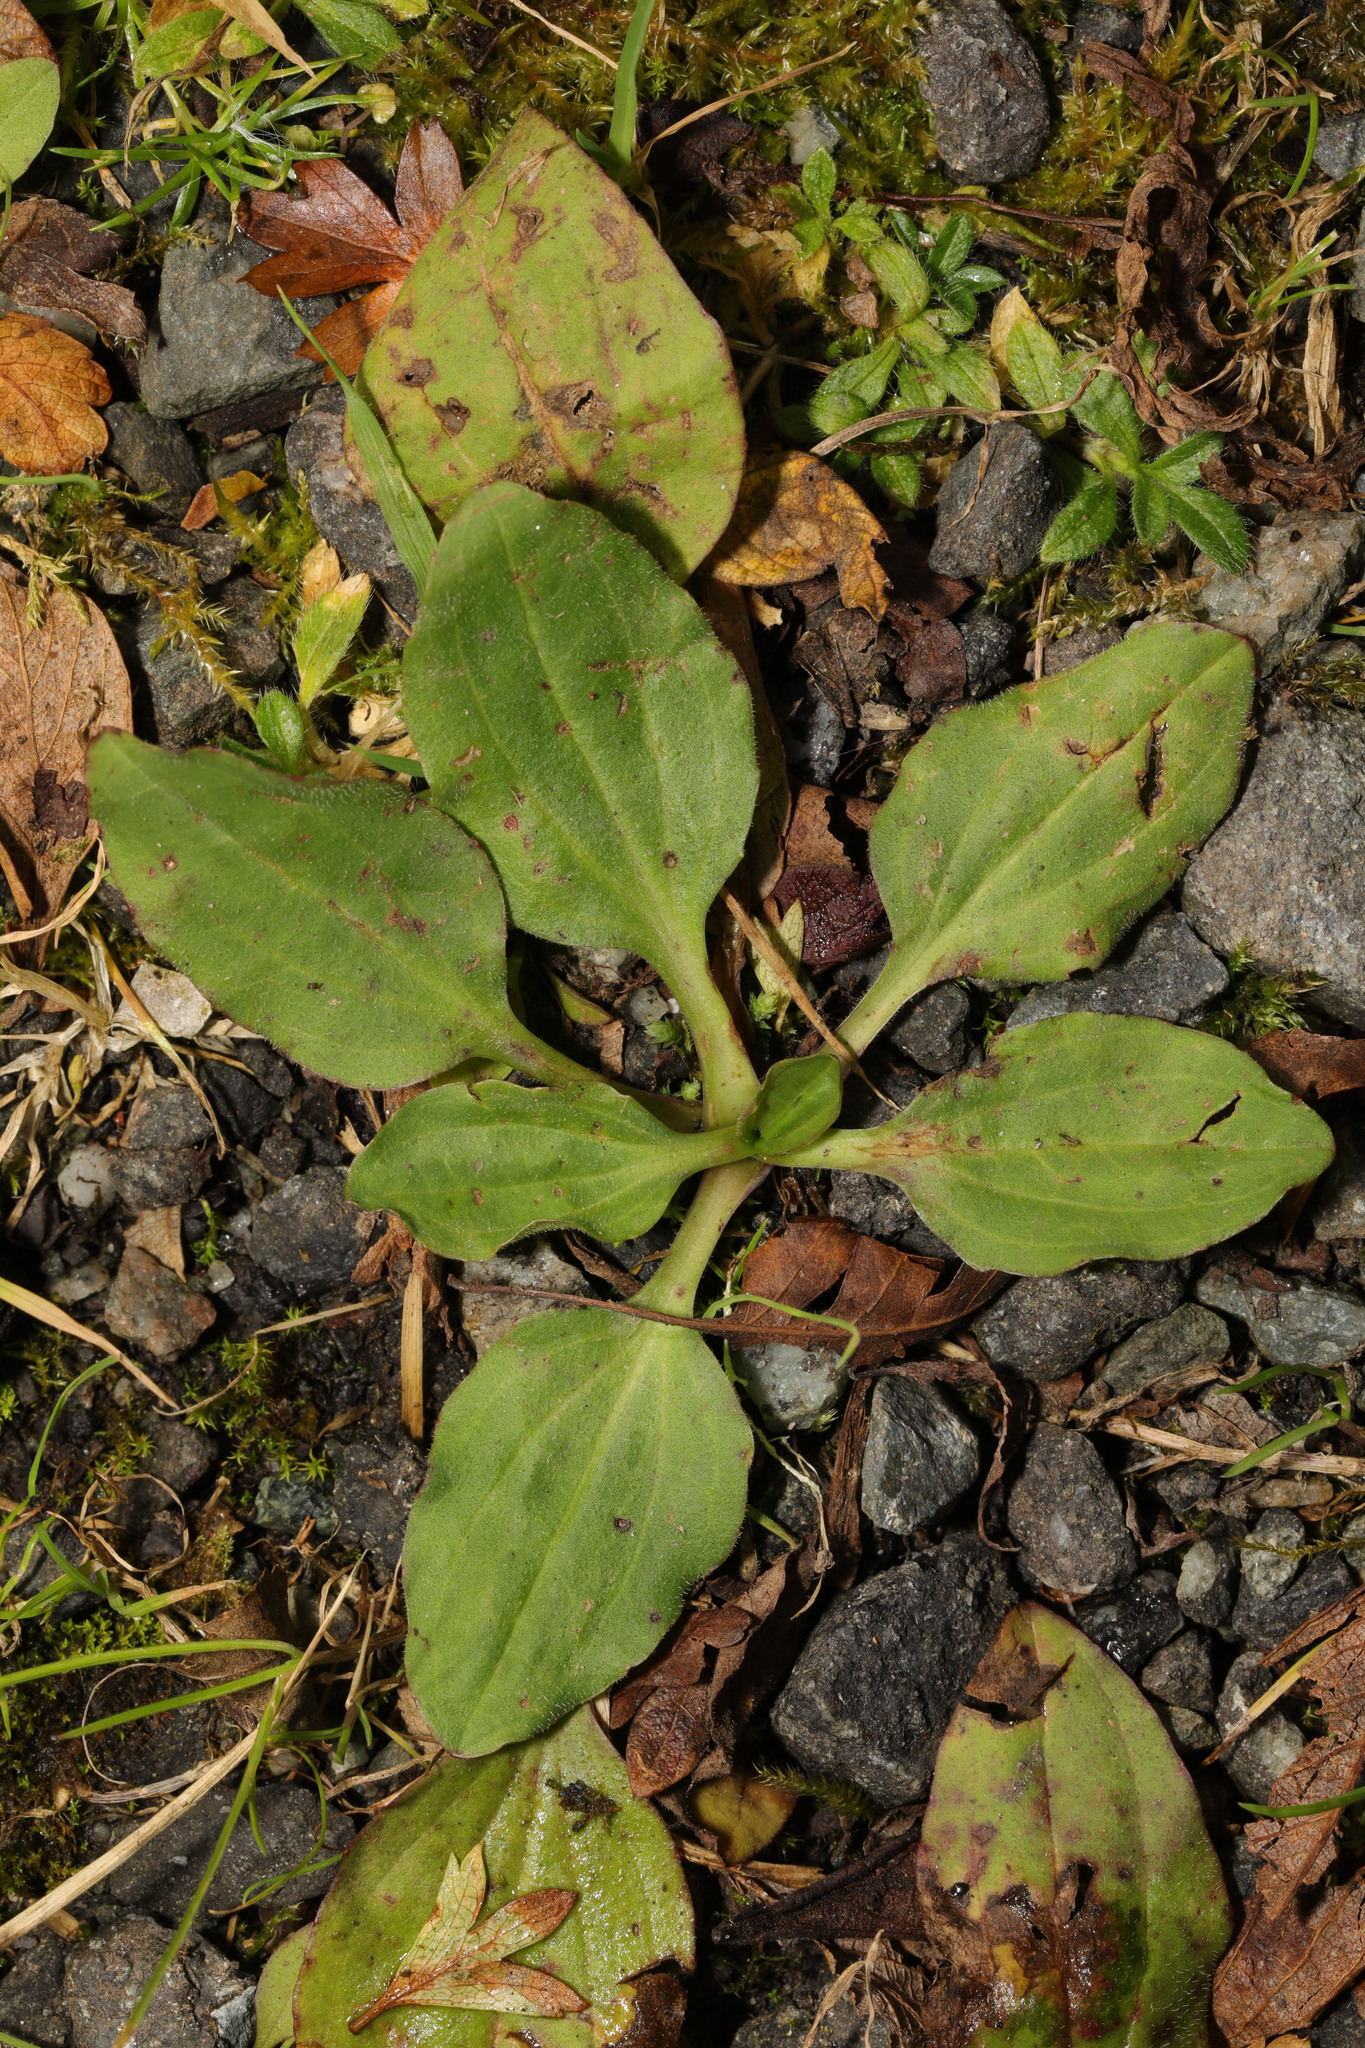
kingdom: Plantae
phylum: Tracheophyta
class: Magnoliopsida
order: Lamiales
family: Plantaginaceae
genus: Plantago
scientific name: Plantago major
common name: Common plantain
